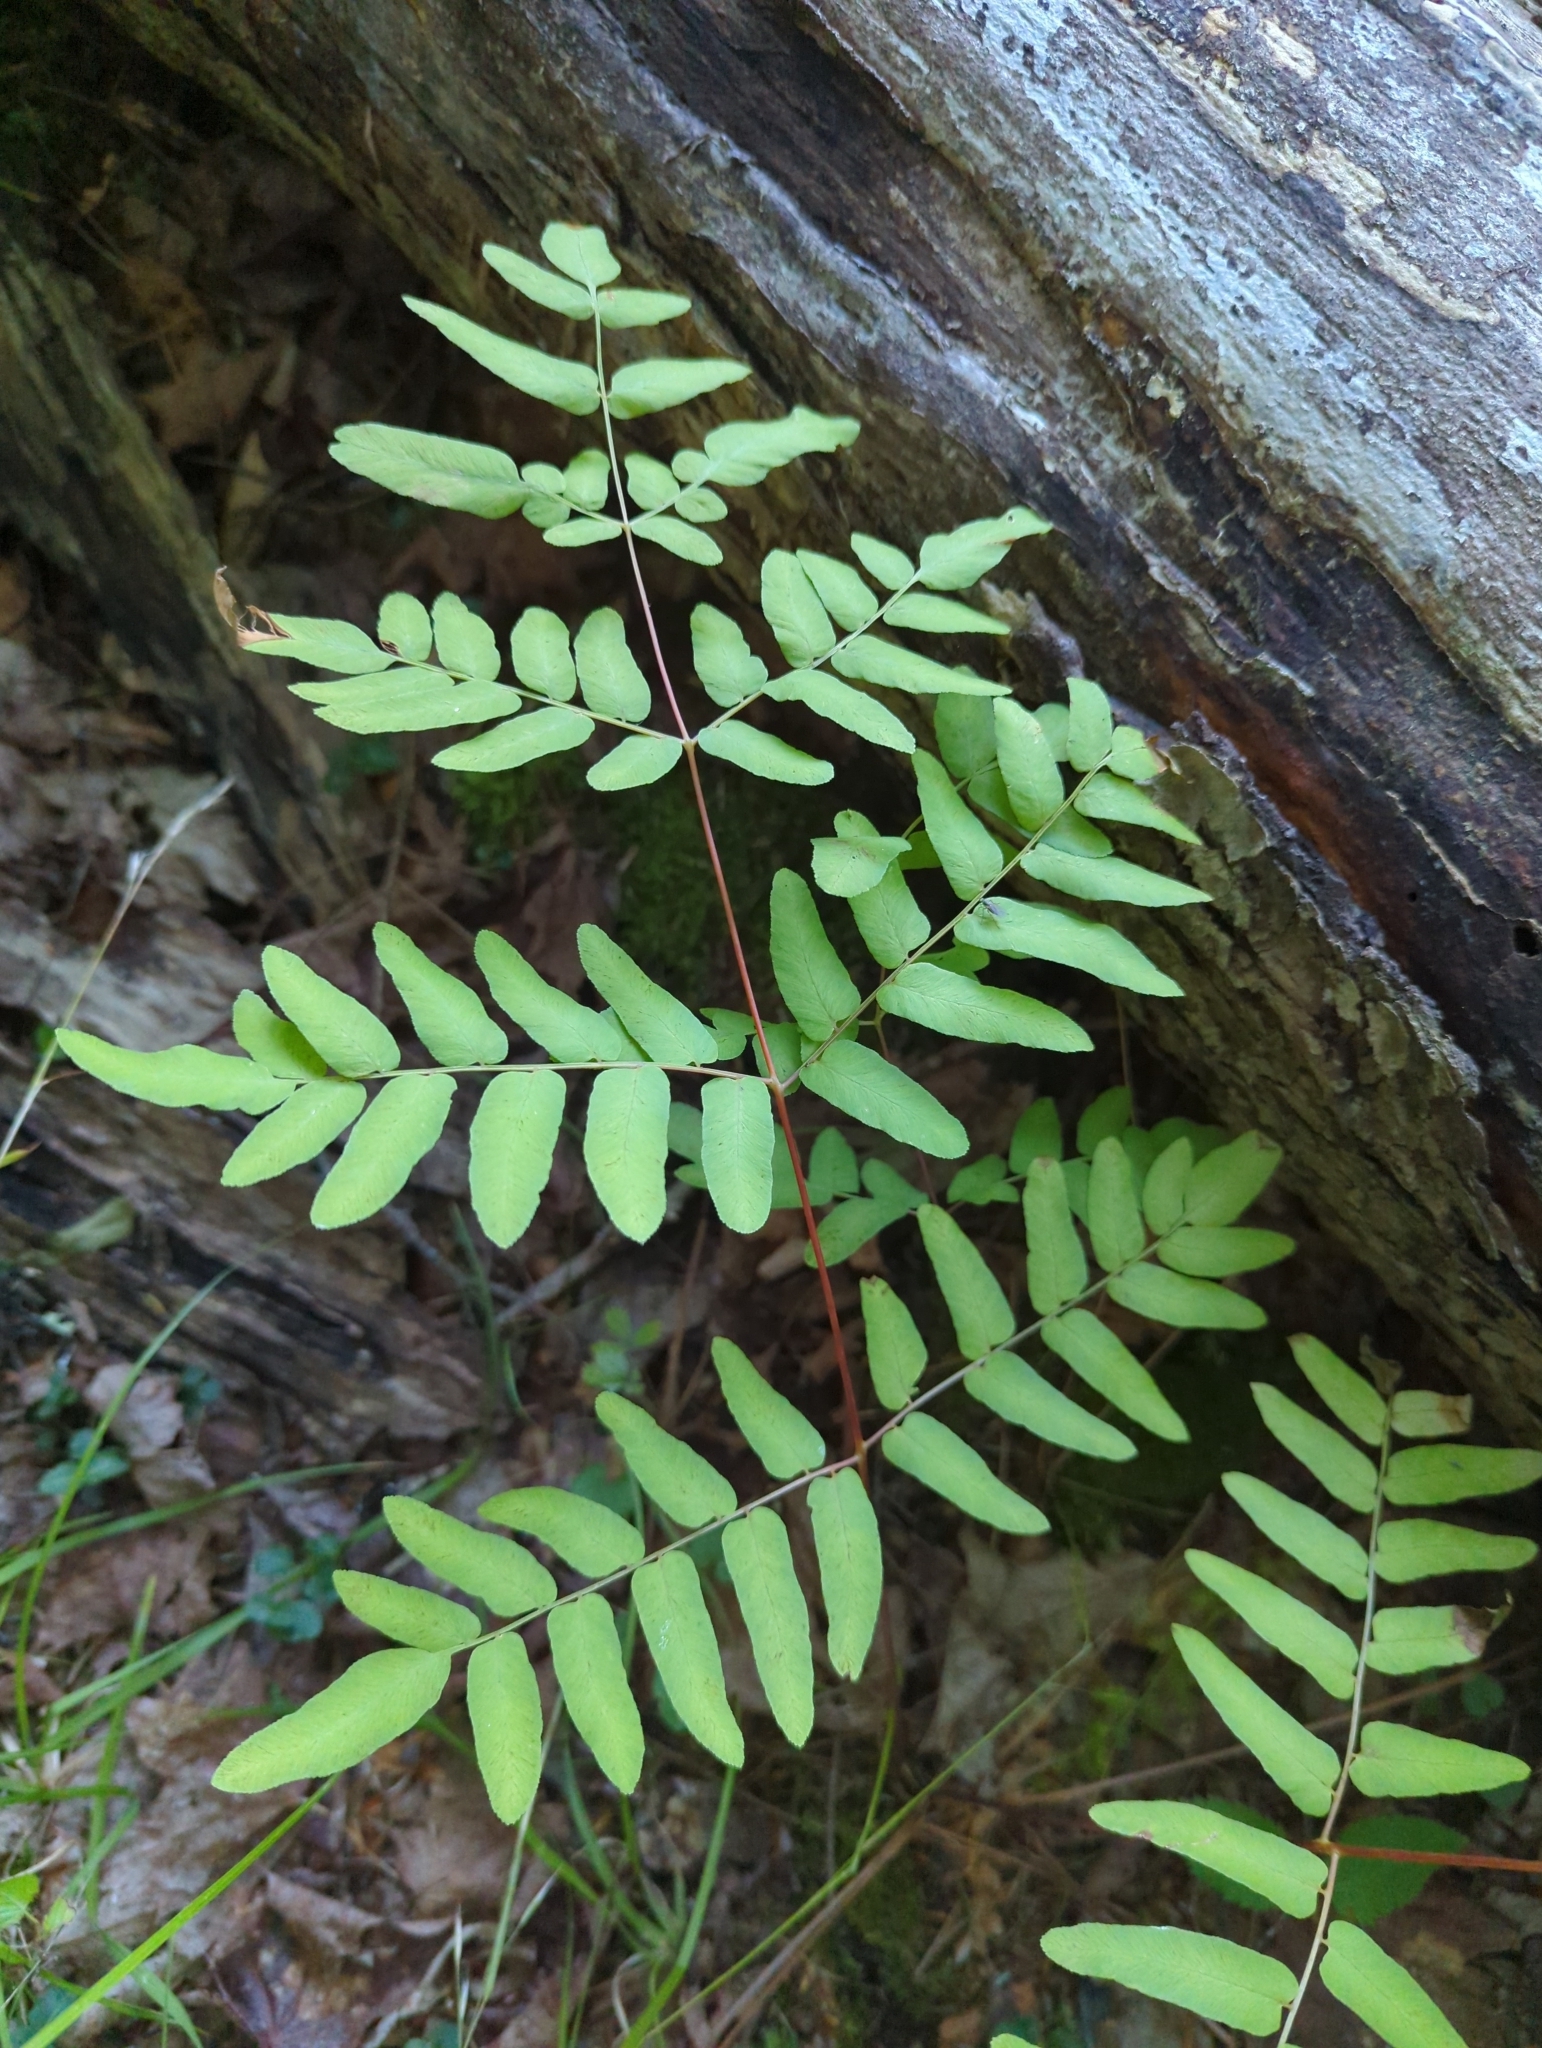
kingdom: Plantae
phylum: Tracheophyta
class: Polypodiopsida
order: Osmundales
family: Osmundaceae
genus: Osmunda
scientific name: Osmunda spectabilis
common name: American royal fern
